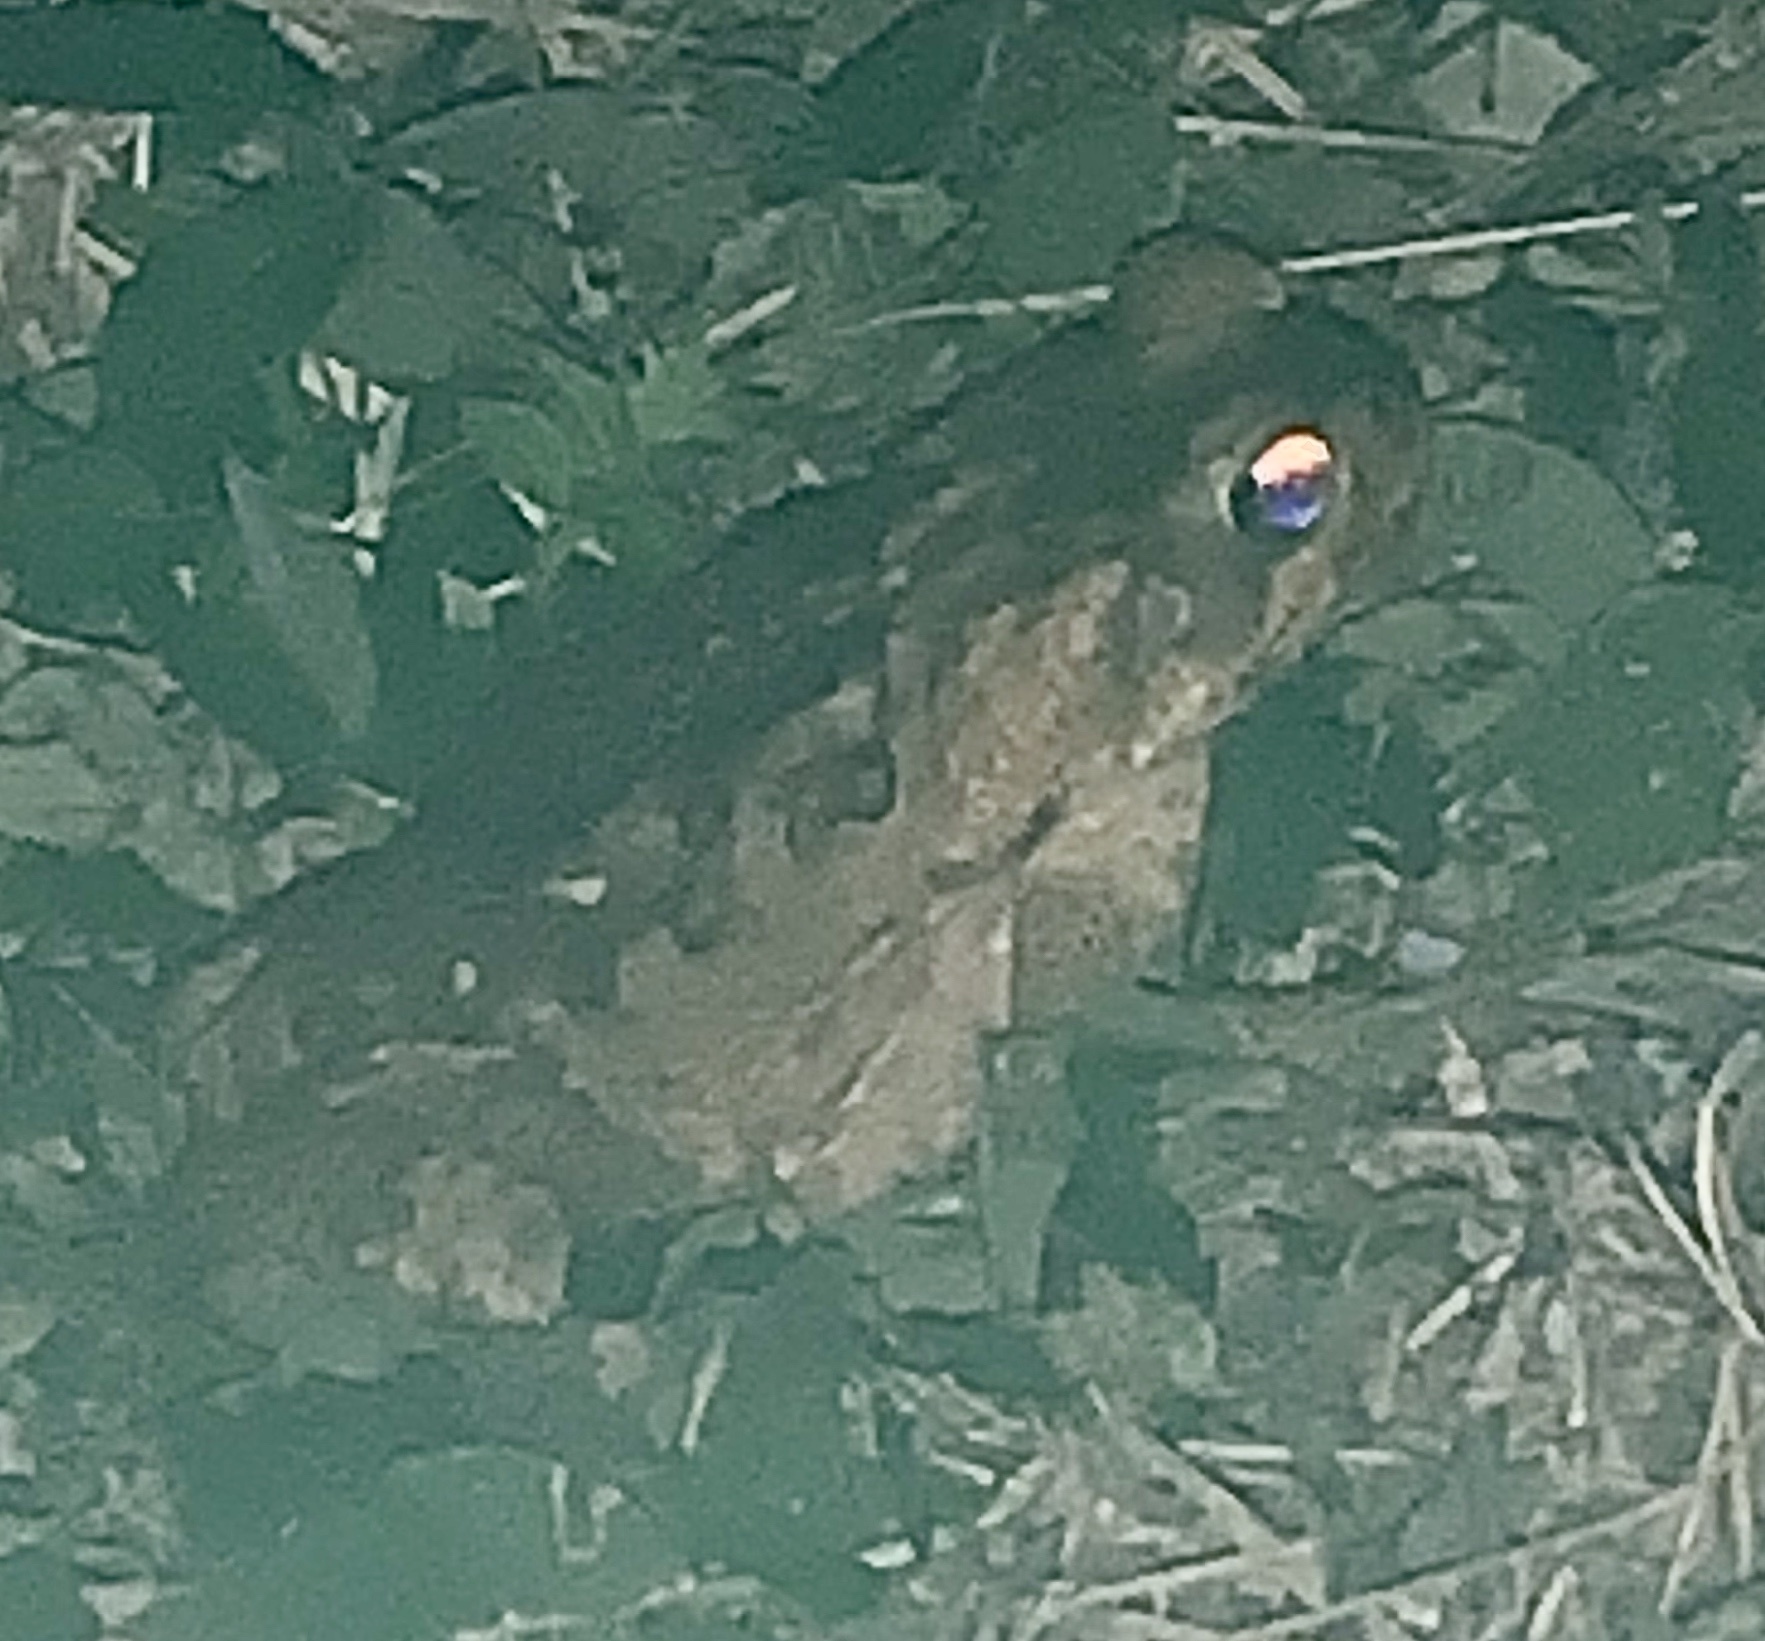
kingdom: Animalia
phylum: Chordata
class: Amphibia
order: Anura
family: Bufonidae
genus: Rhinella
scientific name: Rhinella marina
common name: Cane toad
